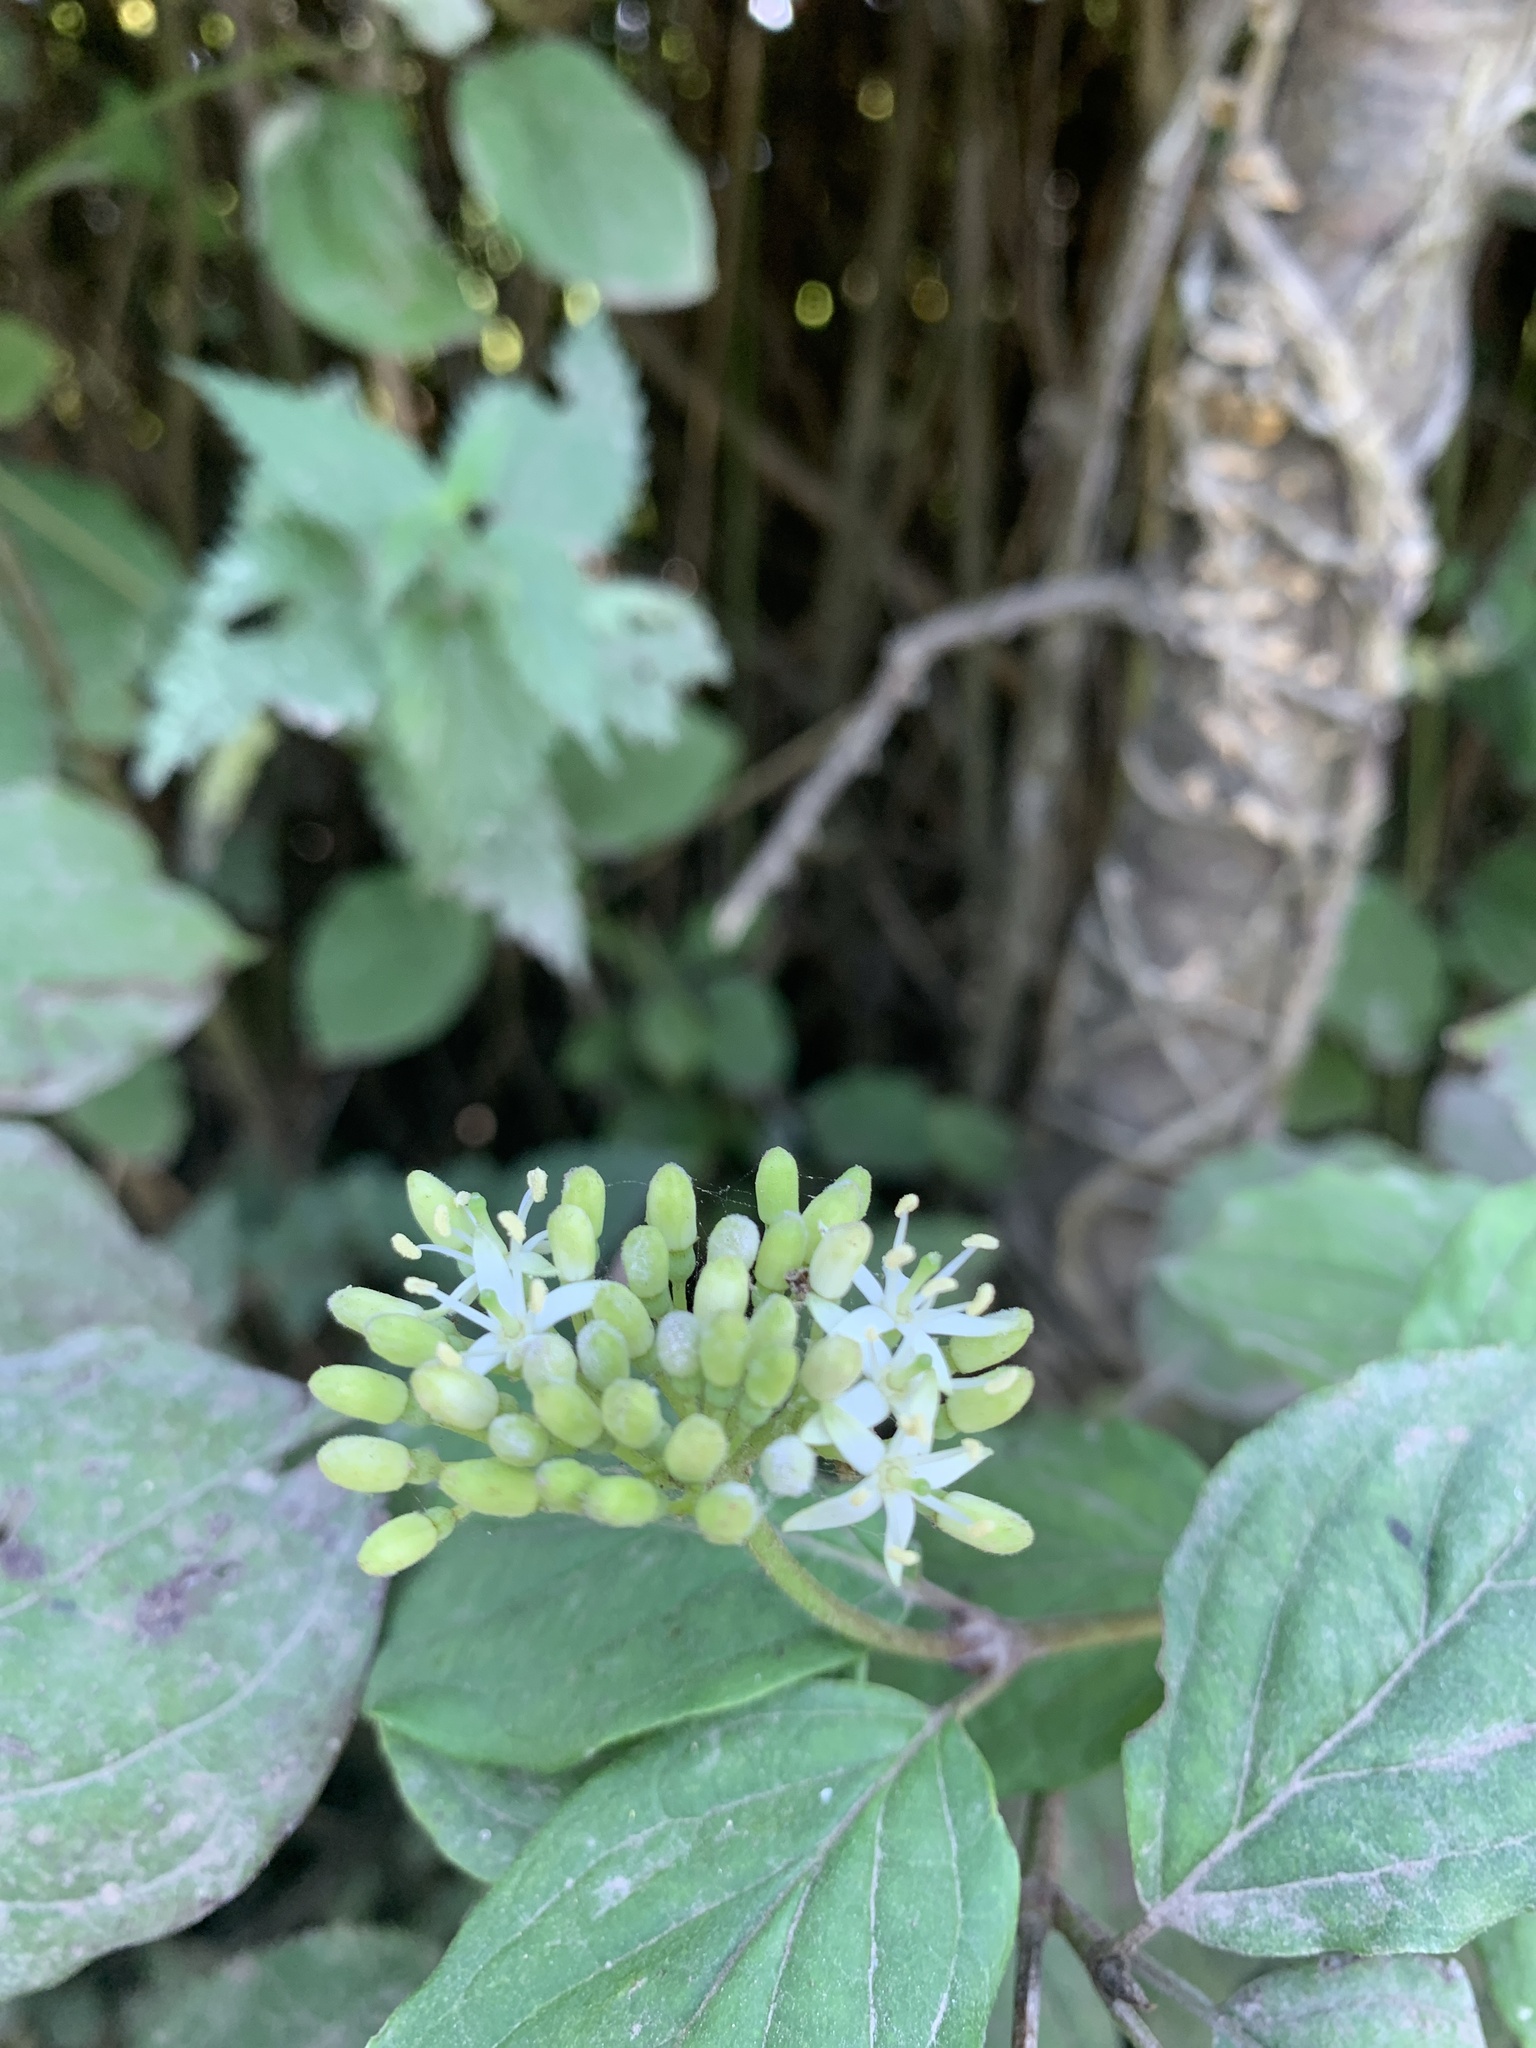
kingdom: Plantae
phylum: Tracheophyta
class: Magnoliopsida
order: Cornales
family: Cornaceae
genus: Cornus
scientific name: Cornus sericea
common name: Red-osier dogwood
